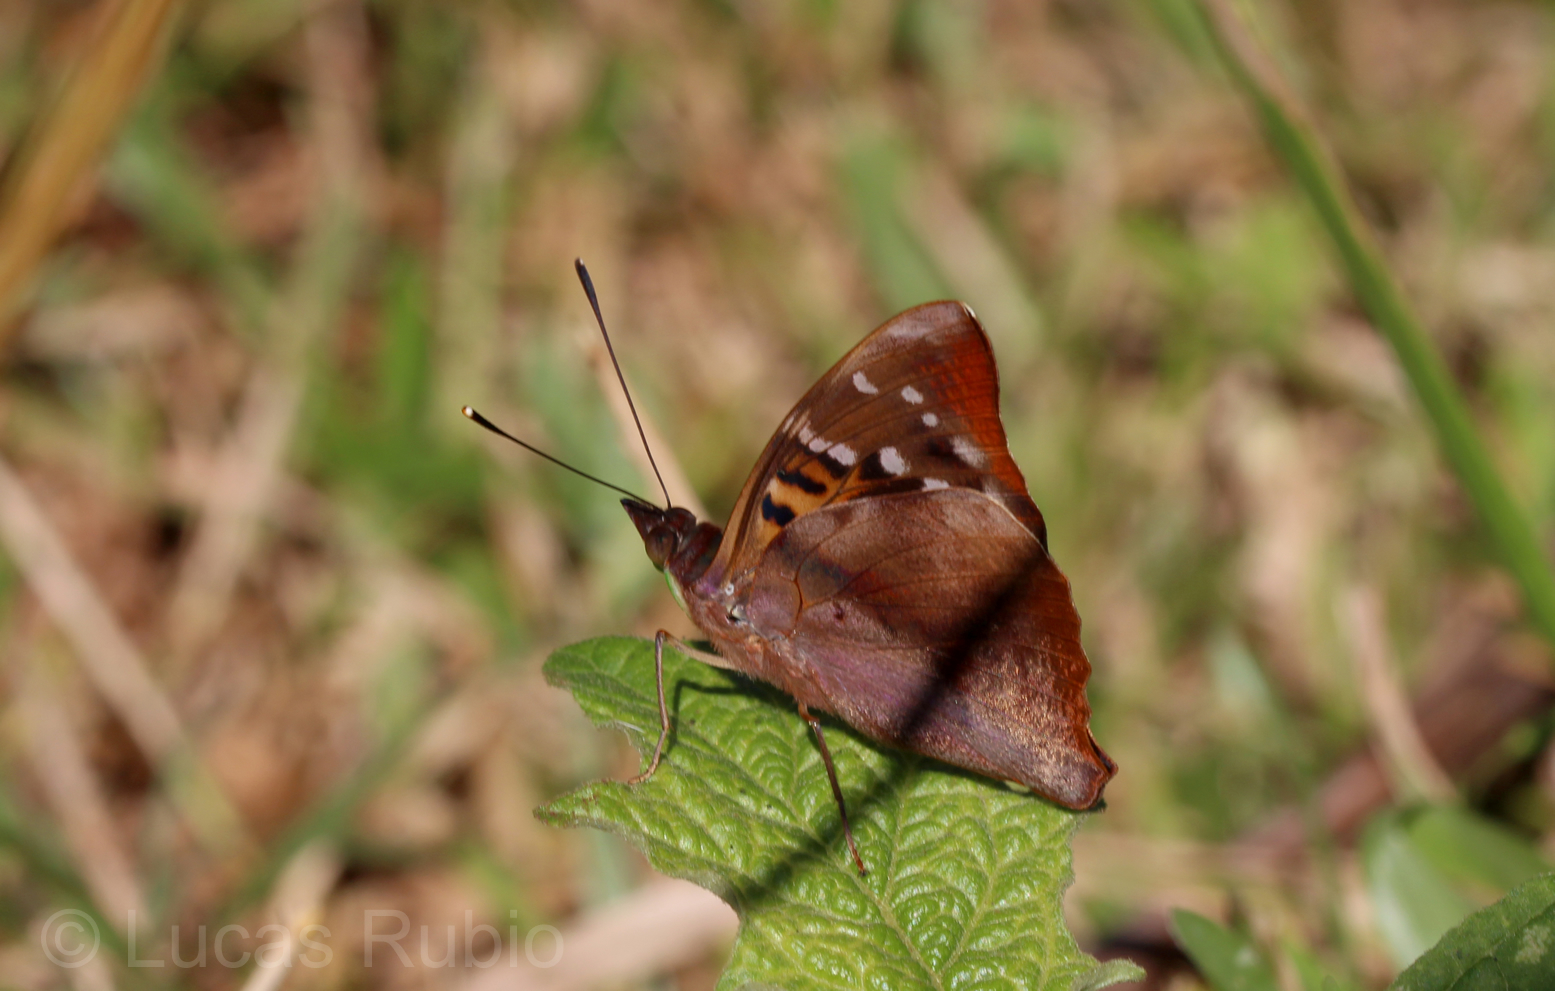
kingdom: Animalia
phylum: Arthropoda
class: Insecta
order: Lepidoptera
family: Nymphalidae
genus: Doxocopa
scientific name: Doxocopa agathina
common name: Agathina emperor
